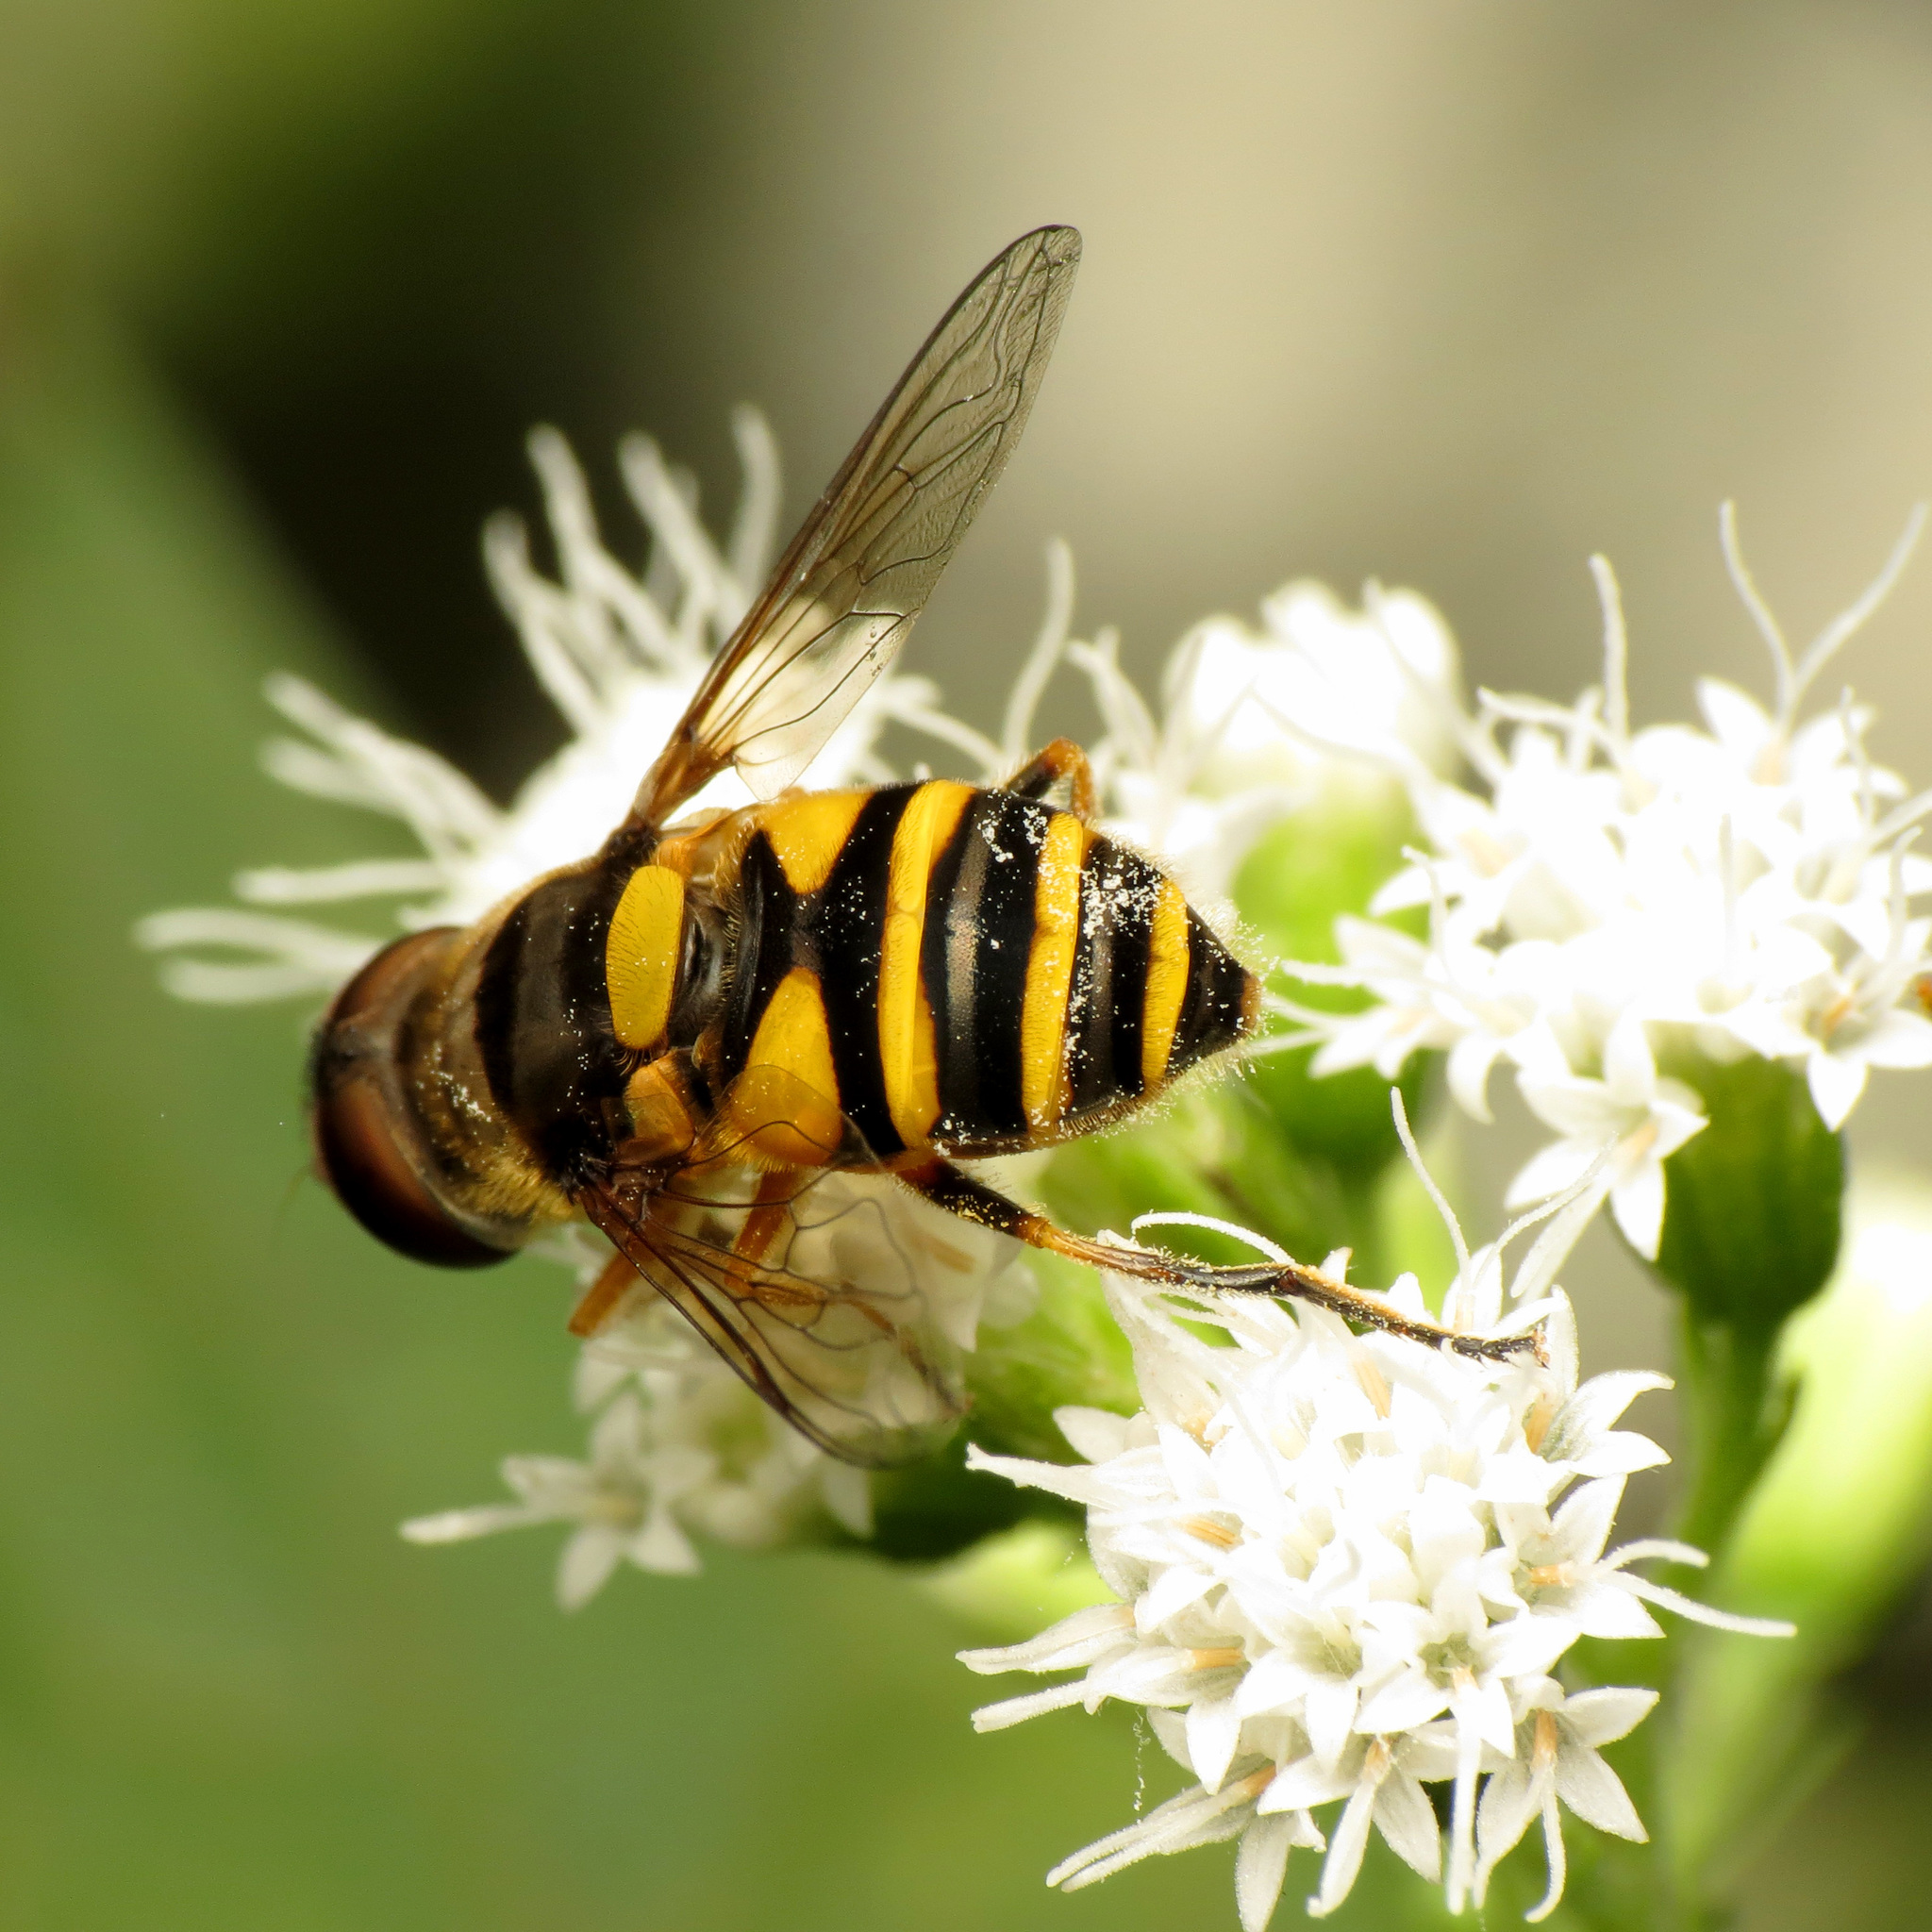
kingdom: Animalia
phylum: Arthropoda
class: Insecta
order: Diptera
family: Syrphidae
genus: Eristalis
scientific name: Eristalis transversa
